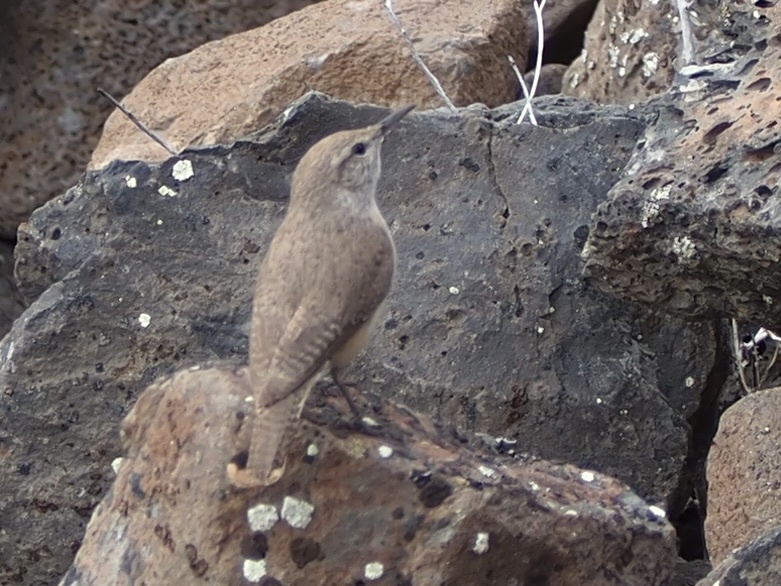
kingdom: Animalia
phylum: Chordata
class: Aves
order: Passeriformes
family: Troglodytidae
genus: Salpinctes
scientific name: Salpinctes obsoletus
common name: Rock wren
